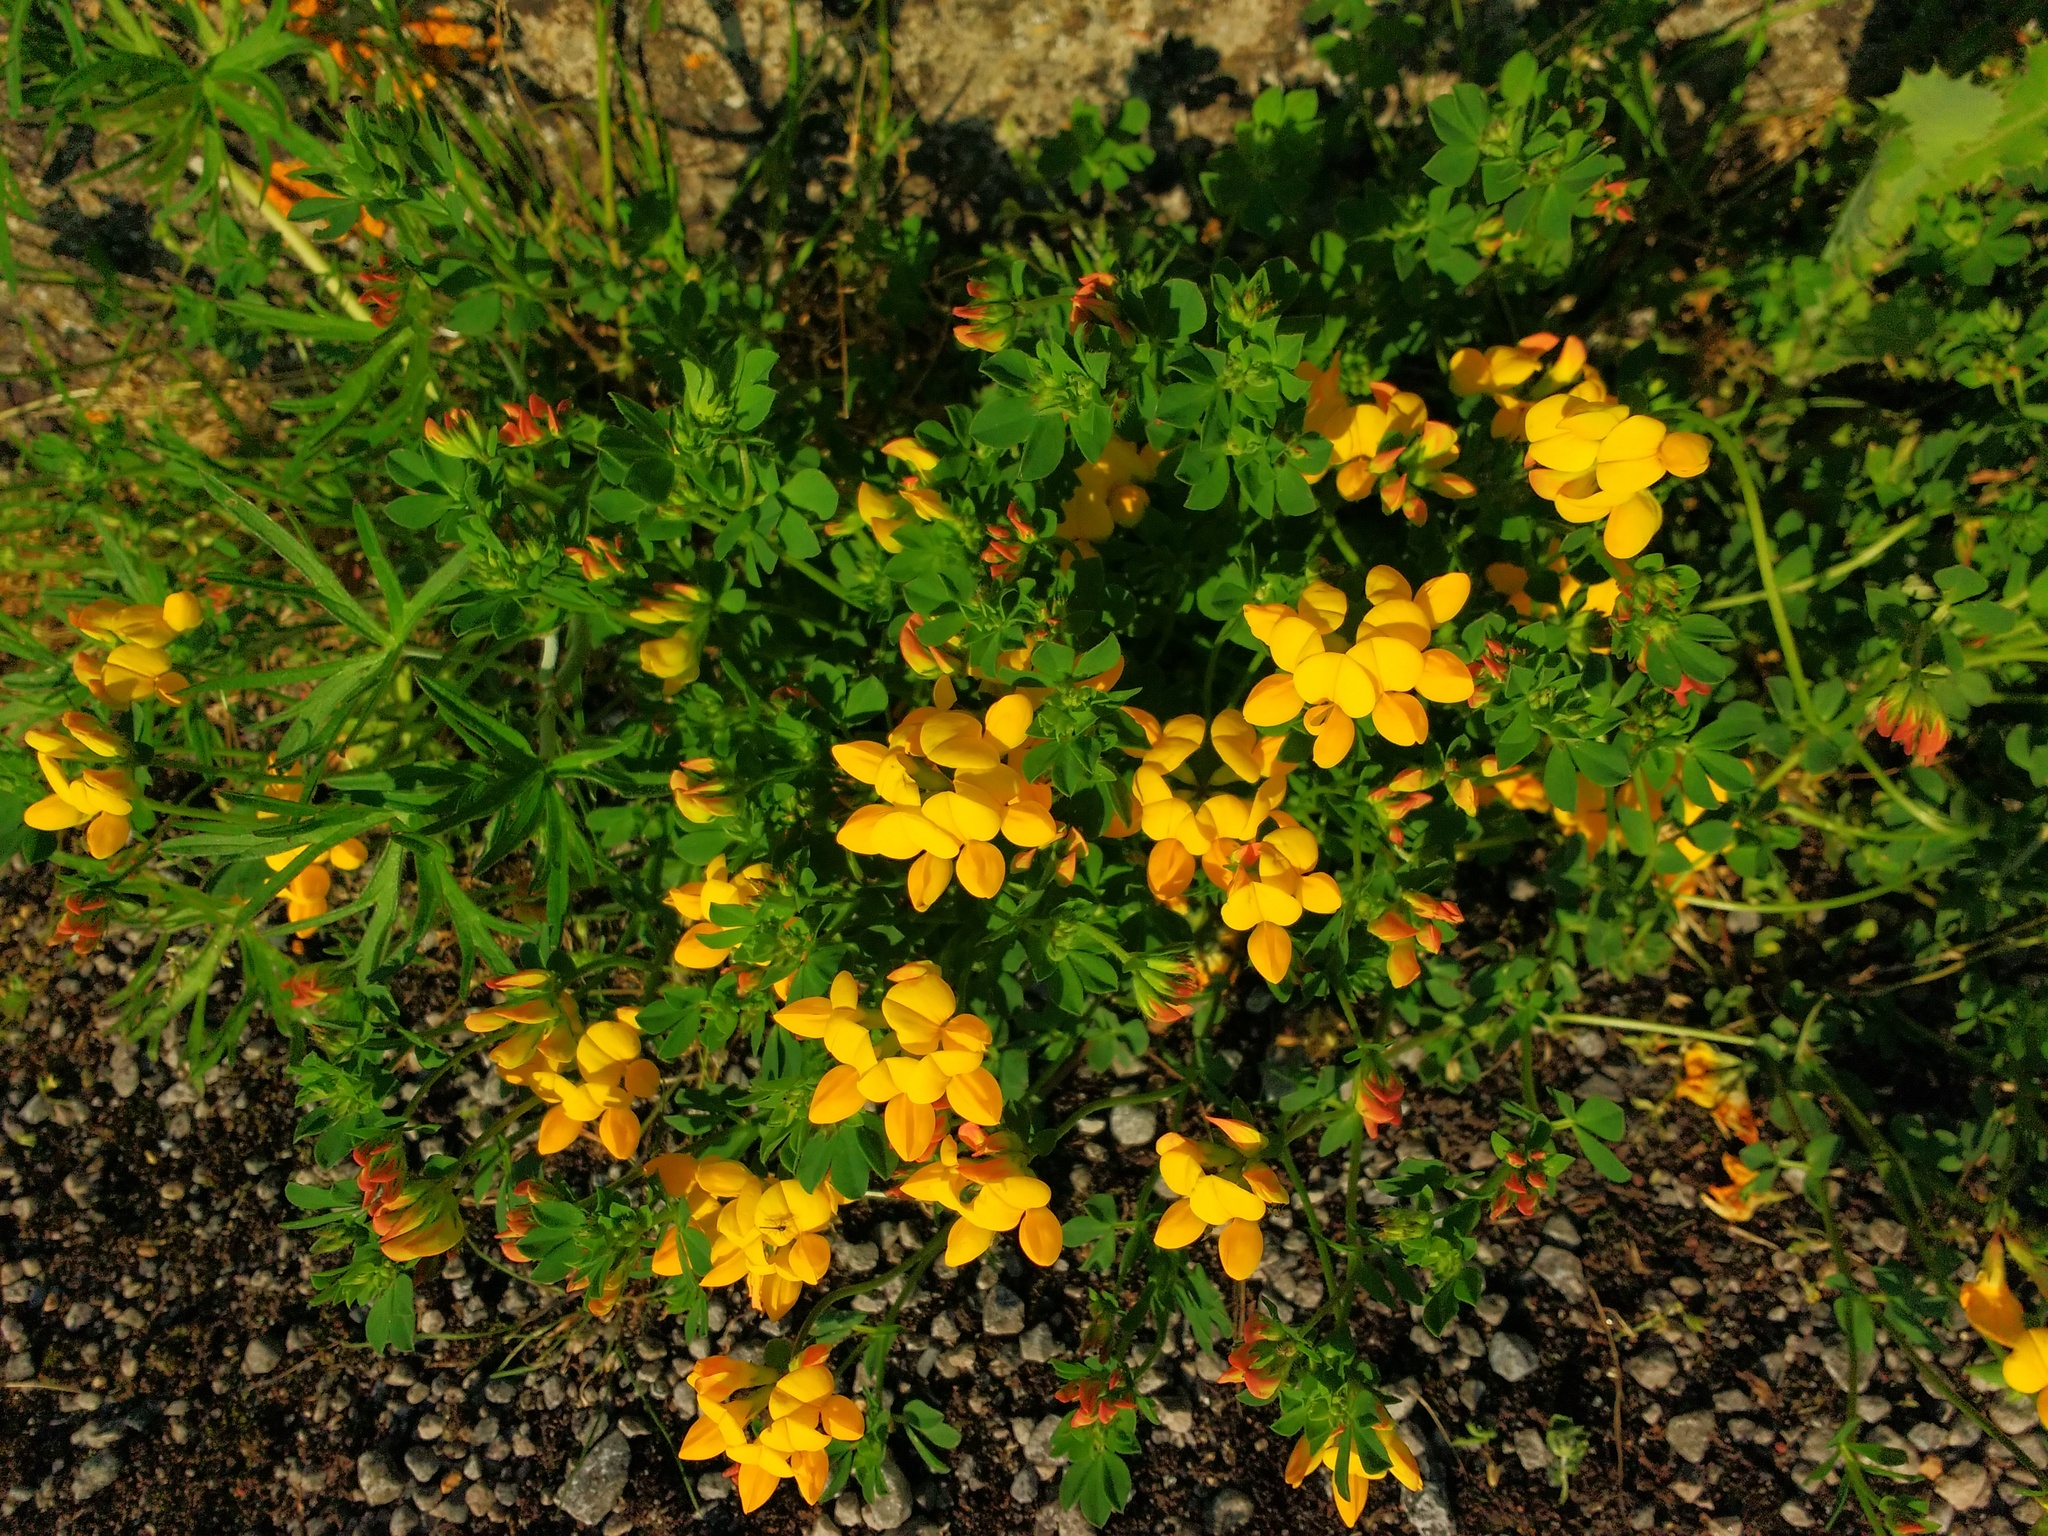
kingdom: Plantae
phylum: Tracheophyta
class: Magnoliopsida
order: Fabales
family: Fabaceae
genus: Lotus
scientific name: Lotus corniculatus
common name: Common bird's-foot-trefoil
